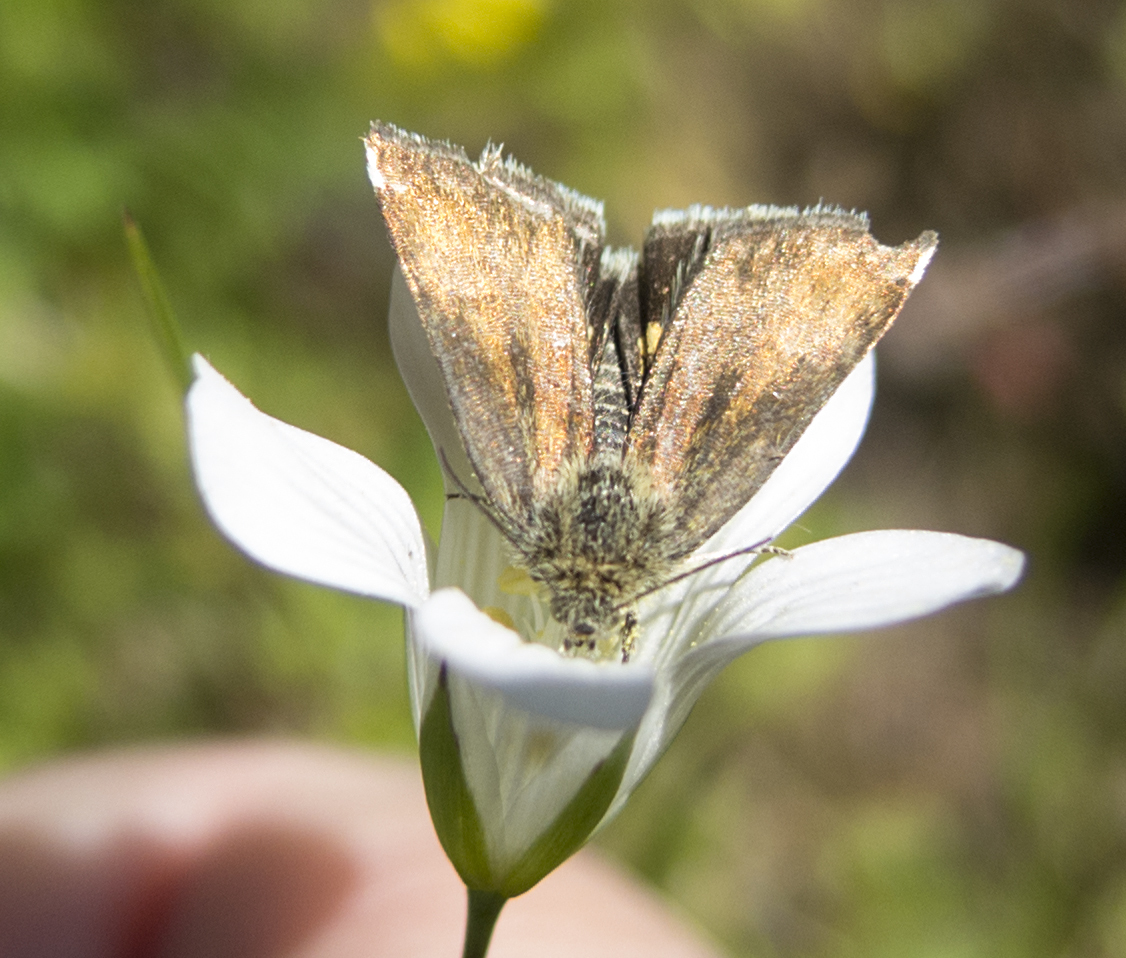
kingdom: Animalia
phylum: Arthropoda
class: Insecta
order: Lepidoptera
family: Noctuidae
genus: Panemeria
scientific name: Panemeria tenebrata
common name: Small yellow underwing
